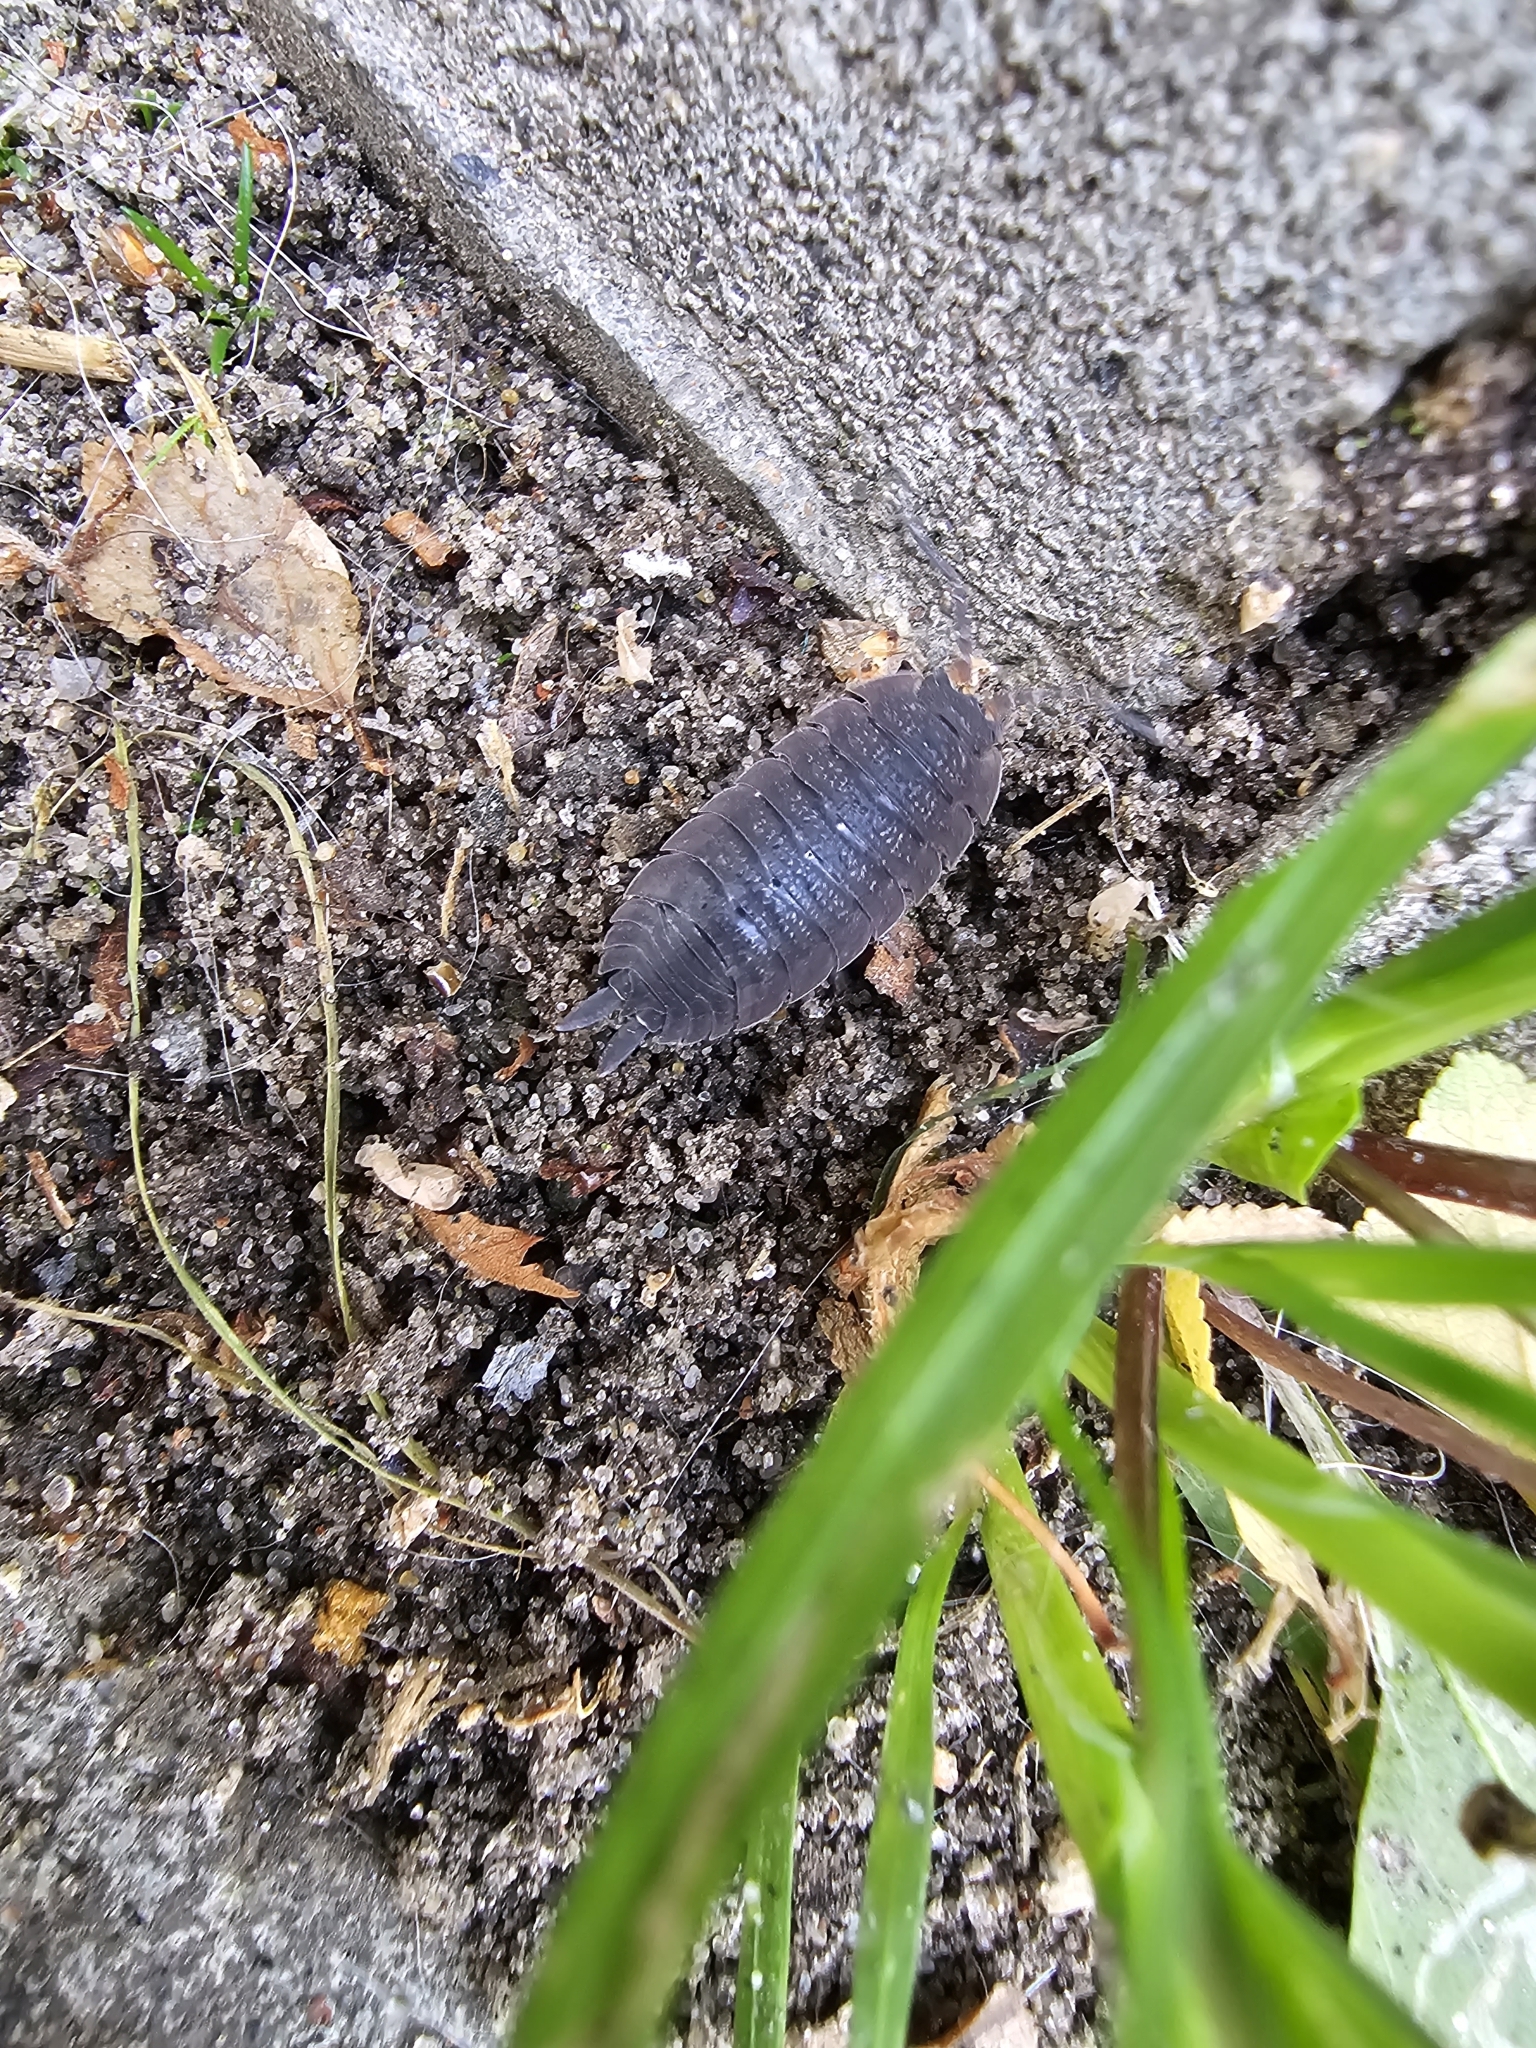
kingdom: Animalia
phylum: Arthropoda
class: Malacostraca
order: Isopoda
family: Porcellionidae
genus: Porcellio
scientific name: Porcellio scaber
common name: Common rough woodlouse
